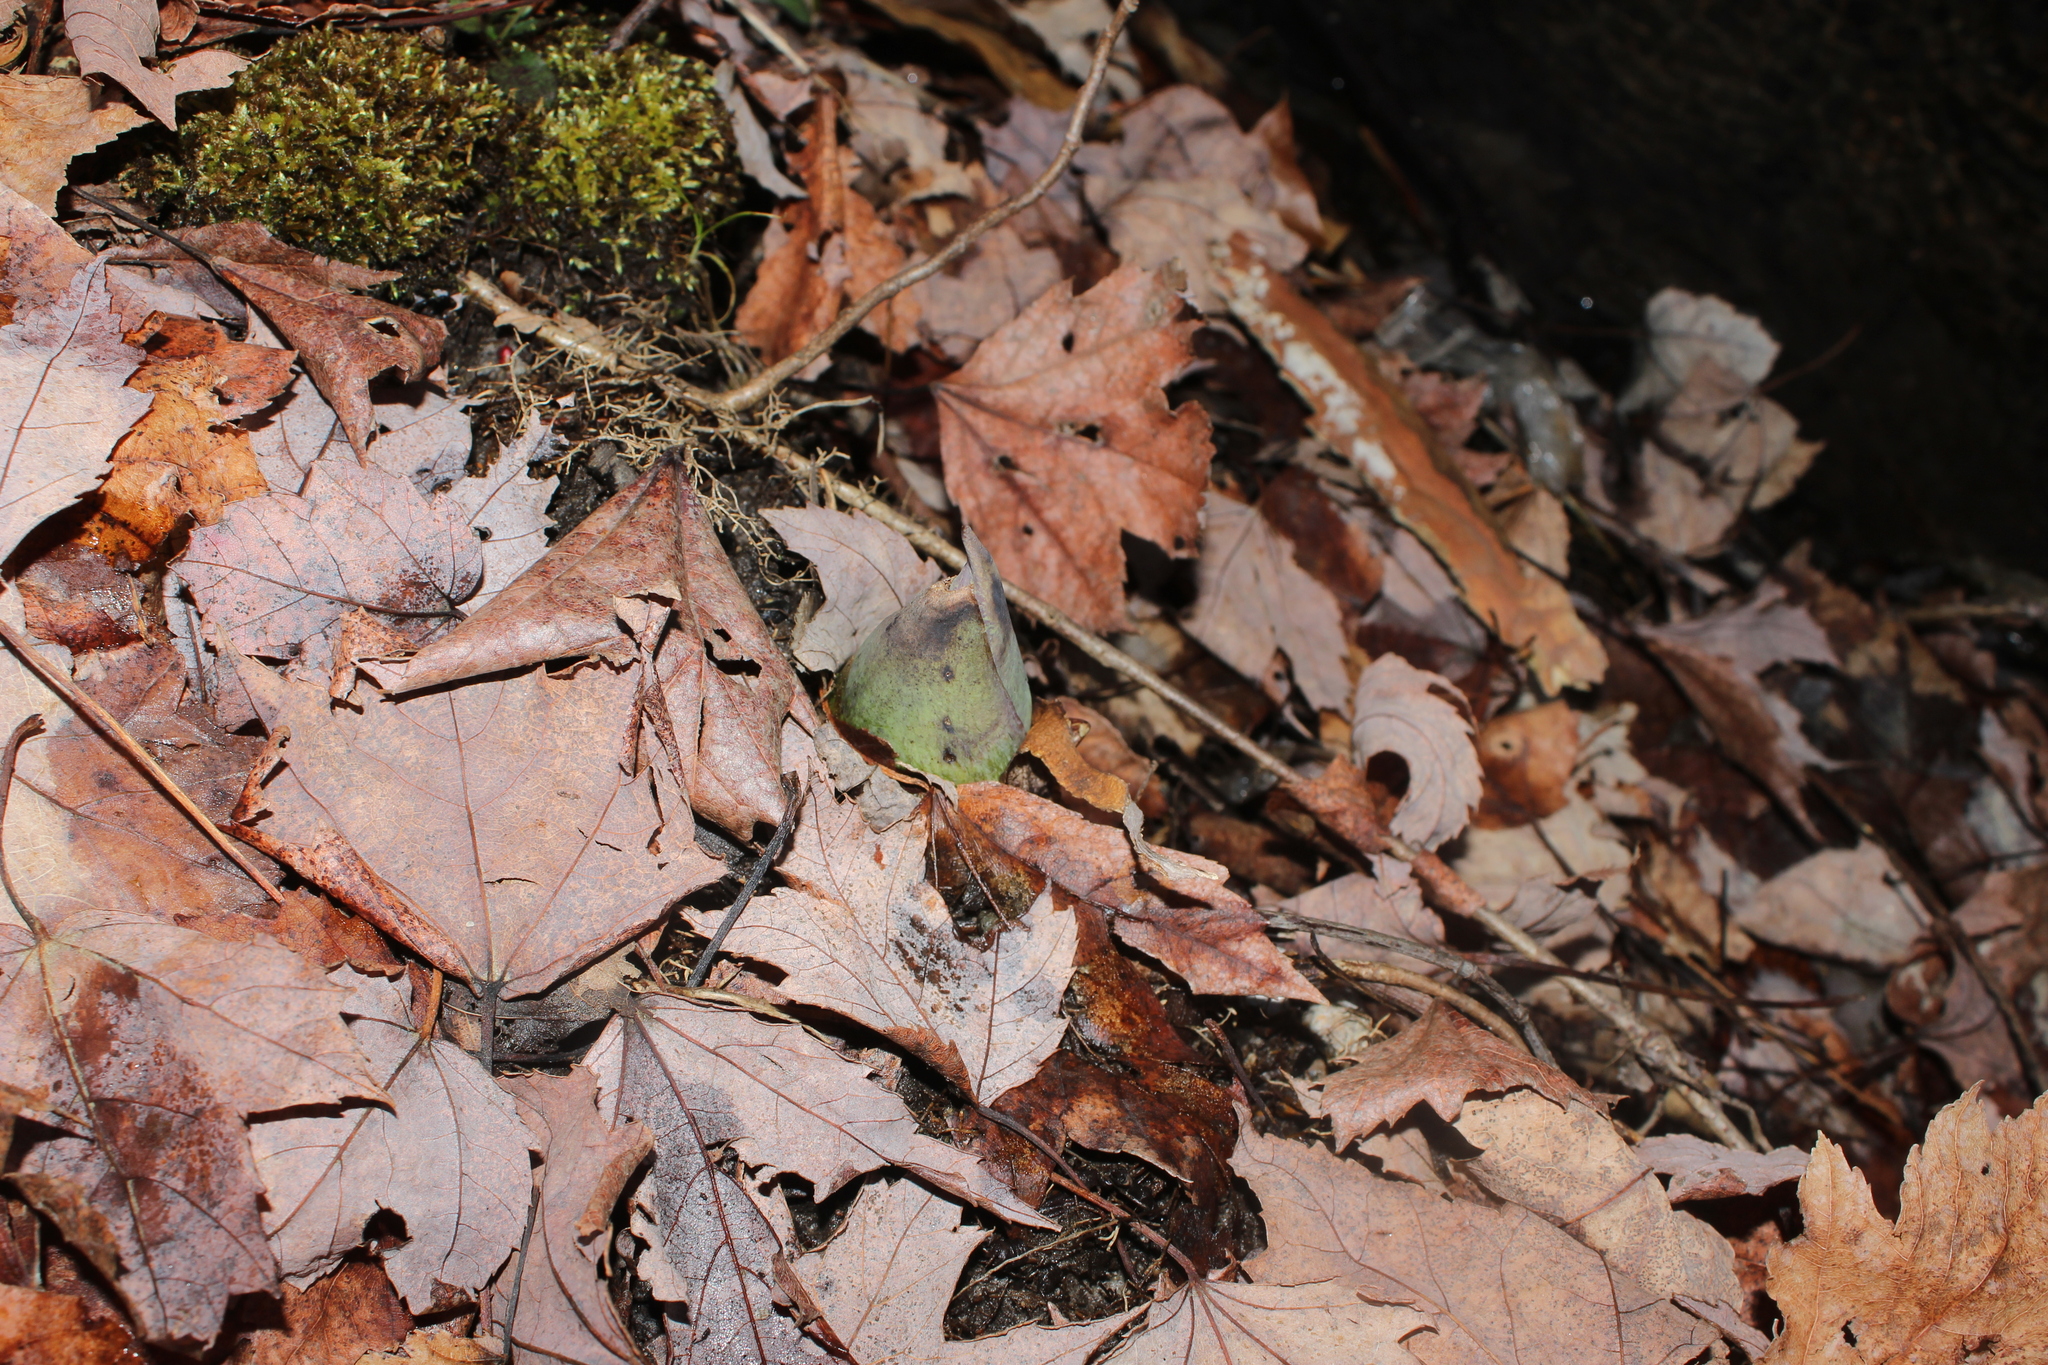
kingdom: Plantae
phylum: Tracheophyta
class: Liliopsida
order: Alismatales
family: Araceae
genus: Symplocarpus
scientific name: Symplocarpus foetidus
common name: Eastern skunk cabbage
